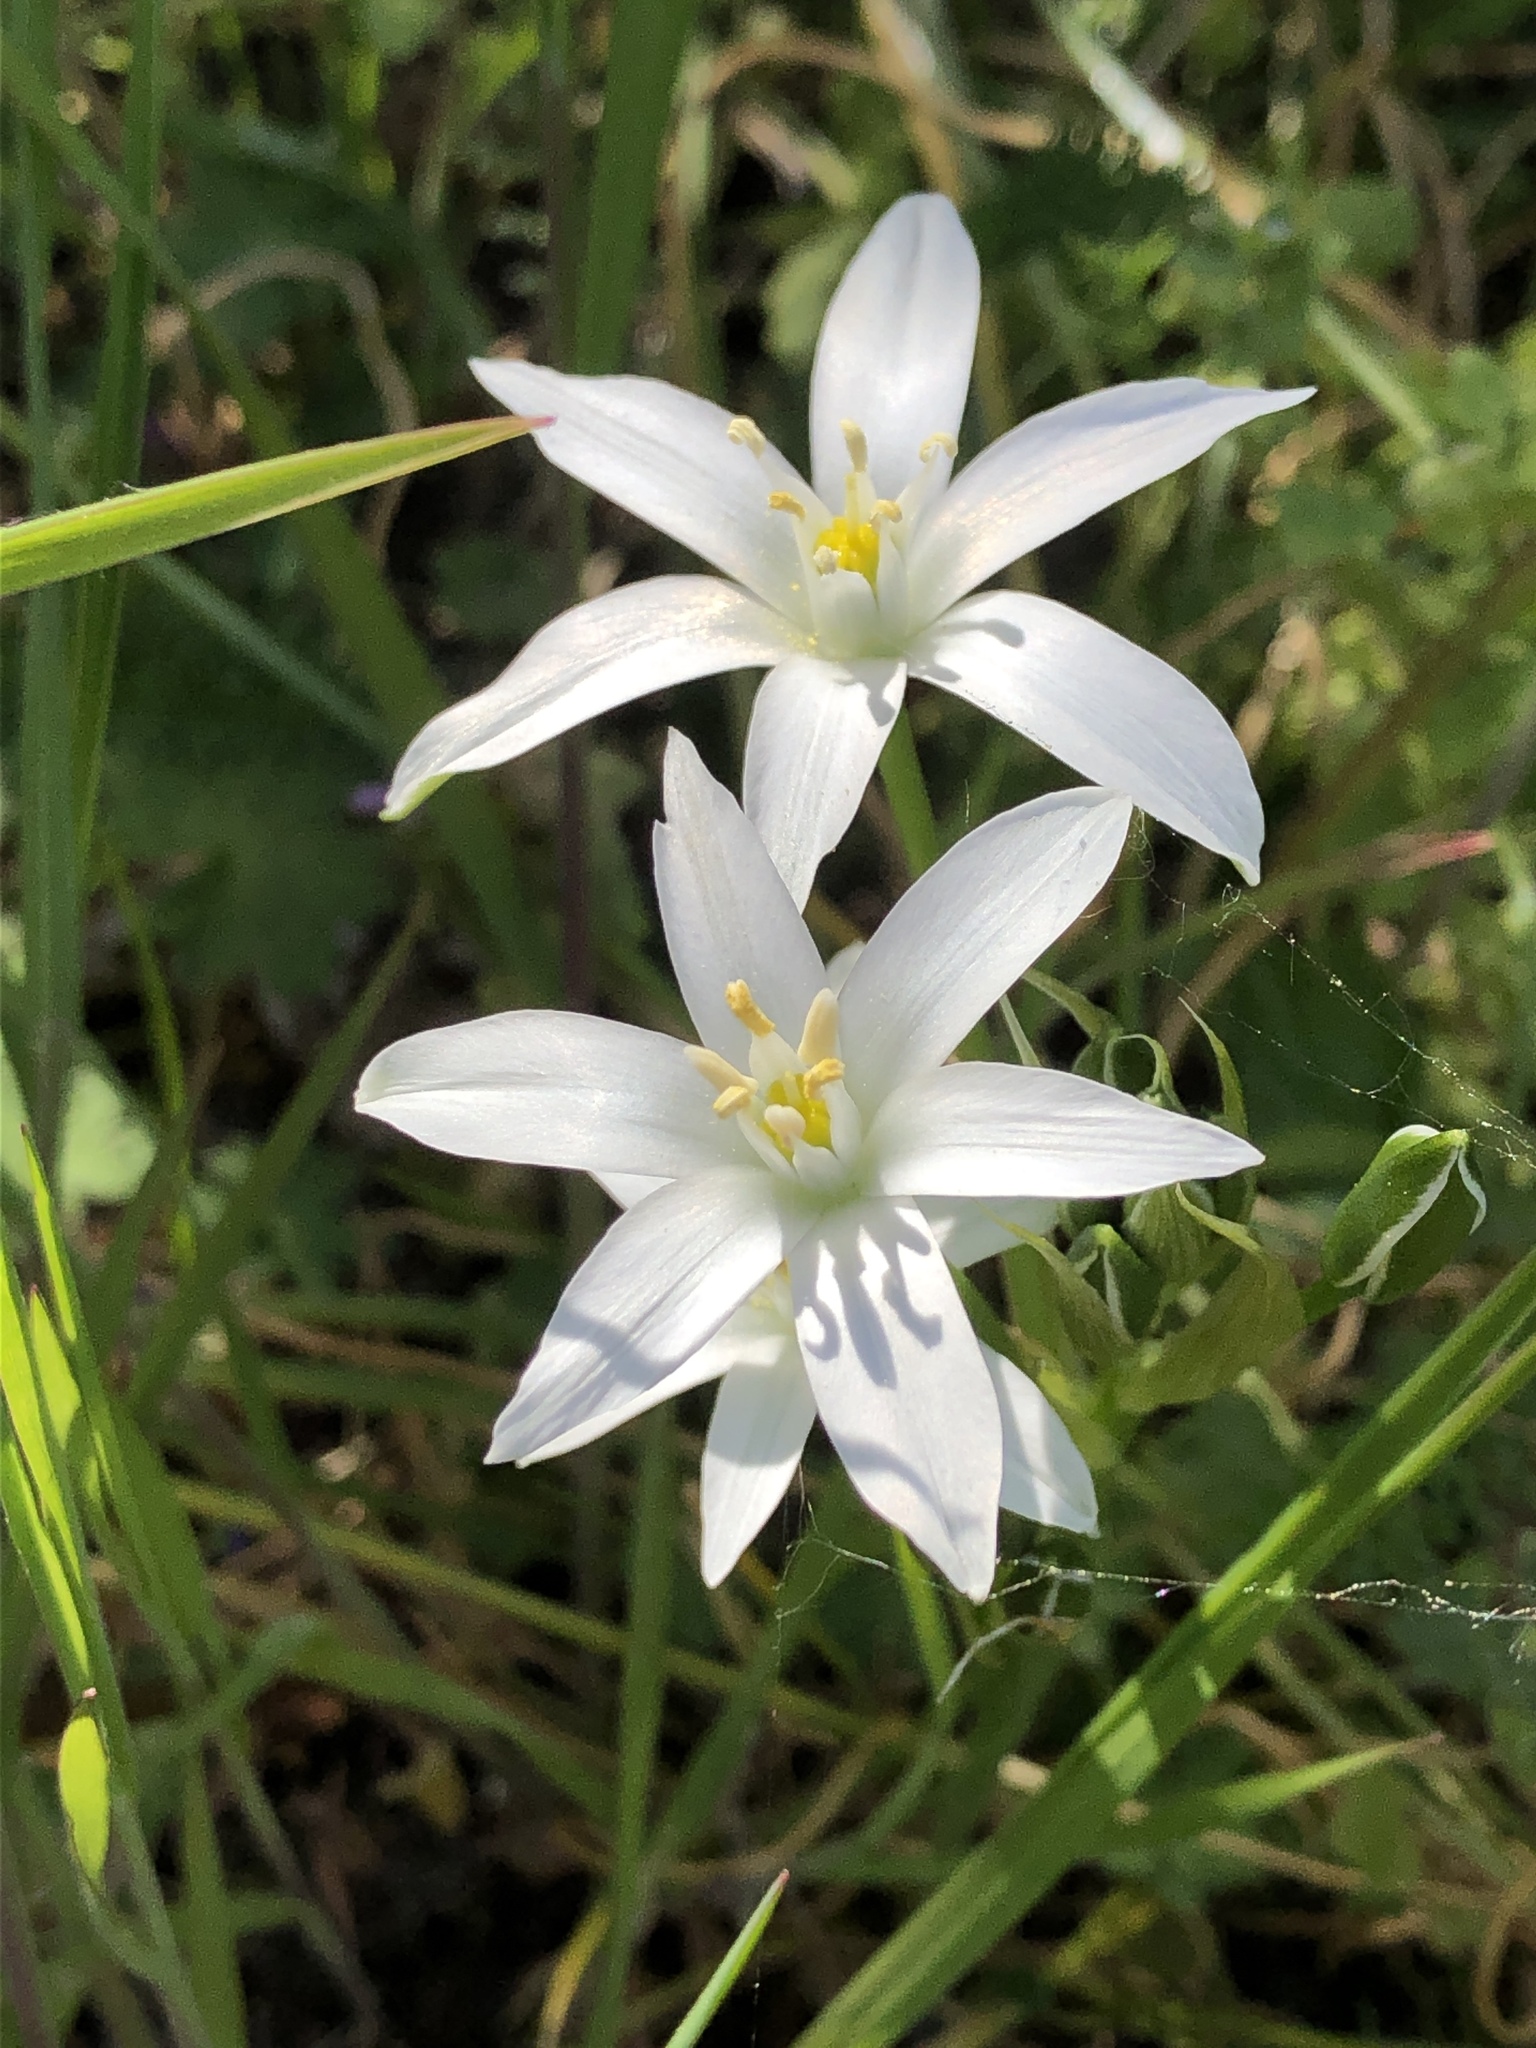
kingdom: Plantae
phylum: Tracheophyta
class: Liliopsida
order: Asparagales
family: Asparagaceae
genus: Ornithogalum
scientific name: Ornithogalum umbellatum
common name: Garden star-of-bethlehem
